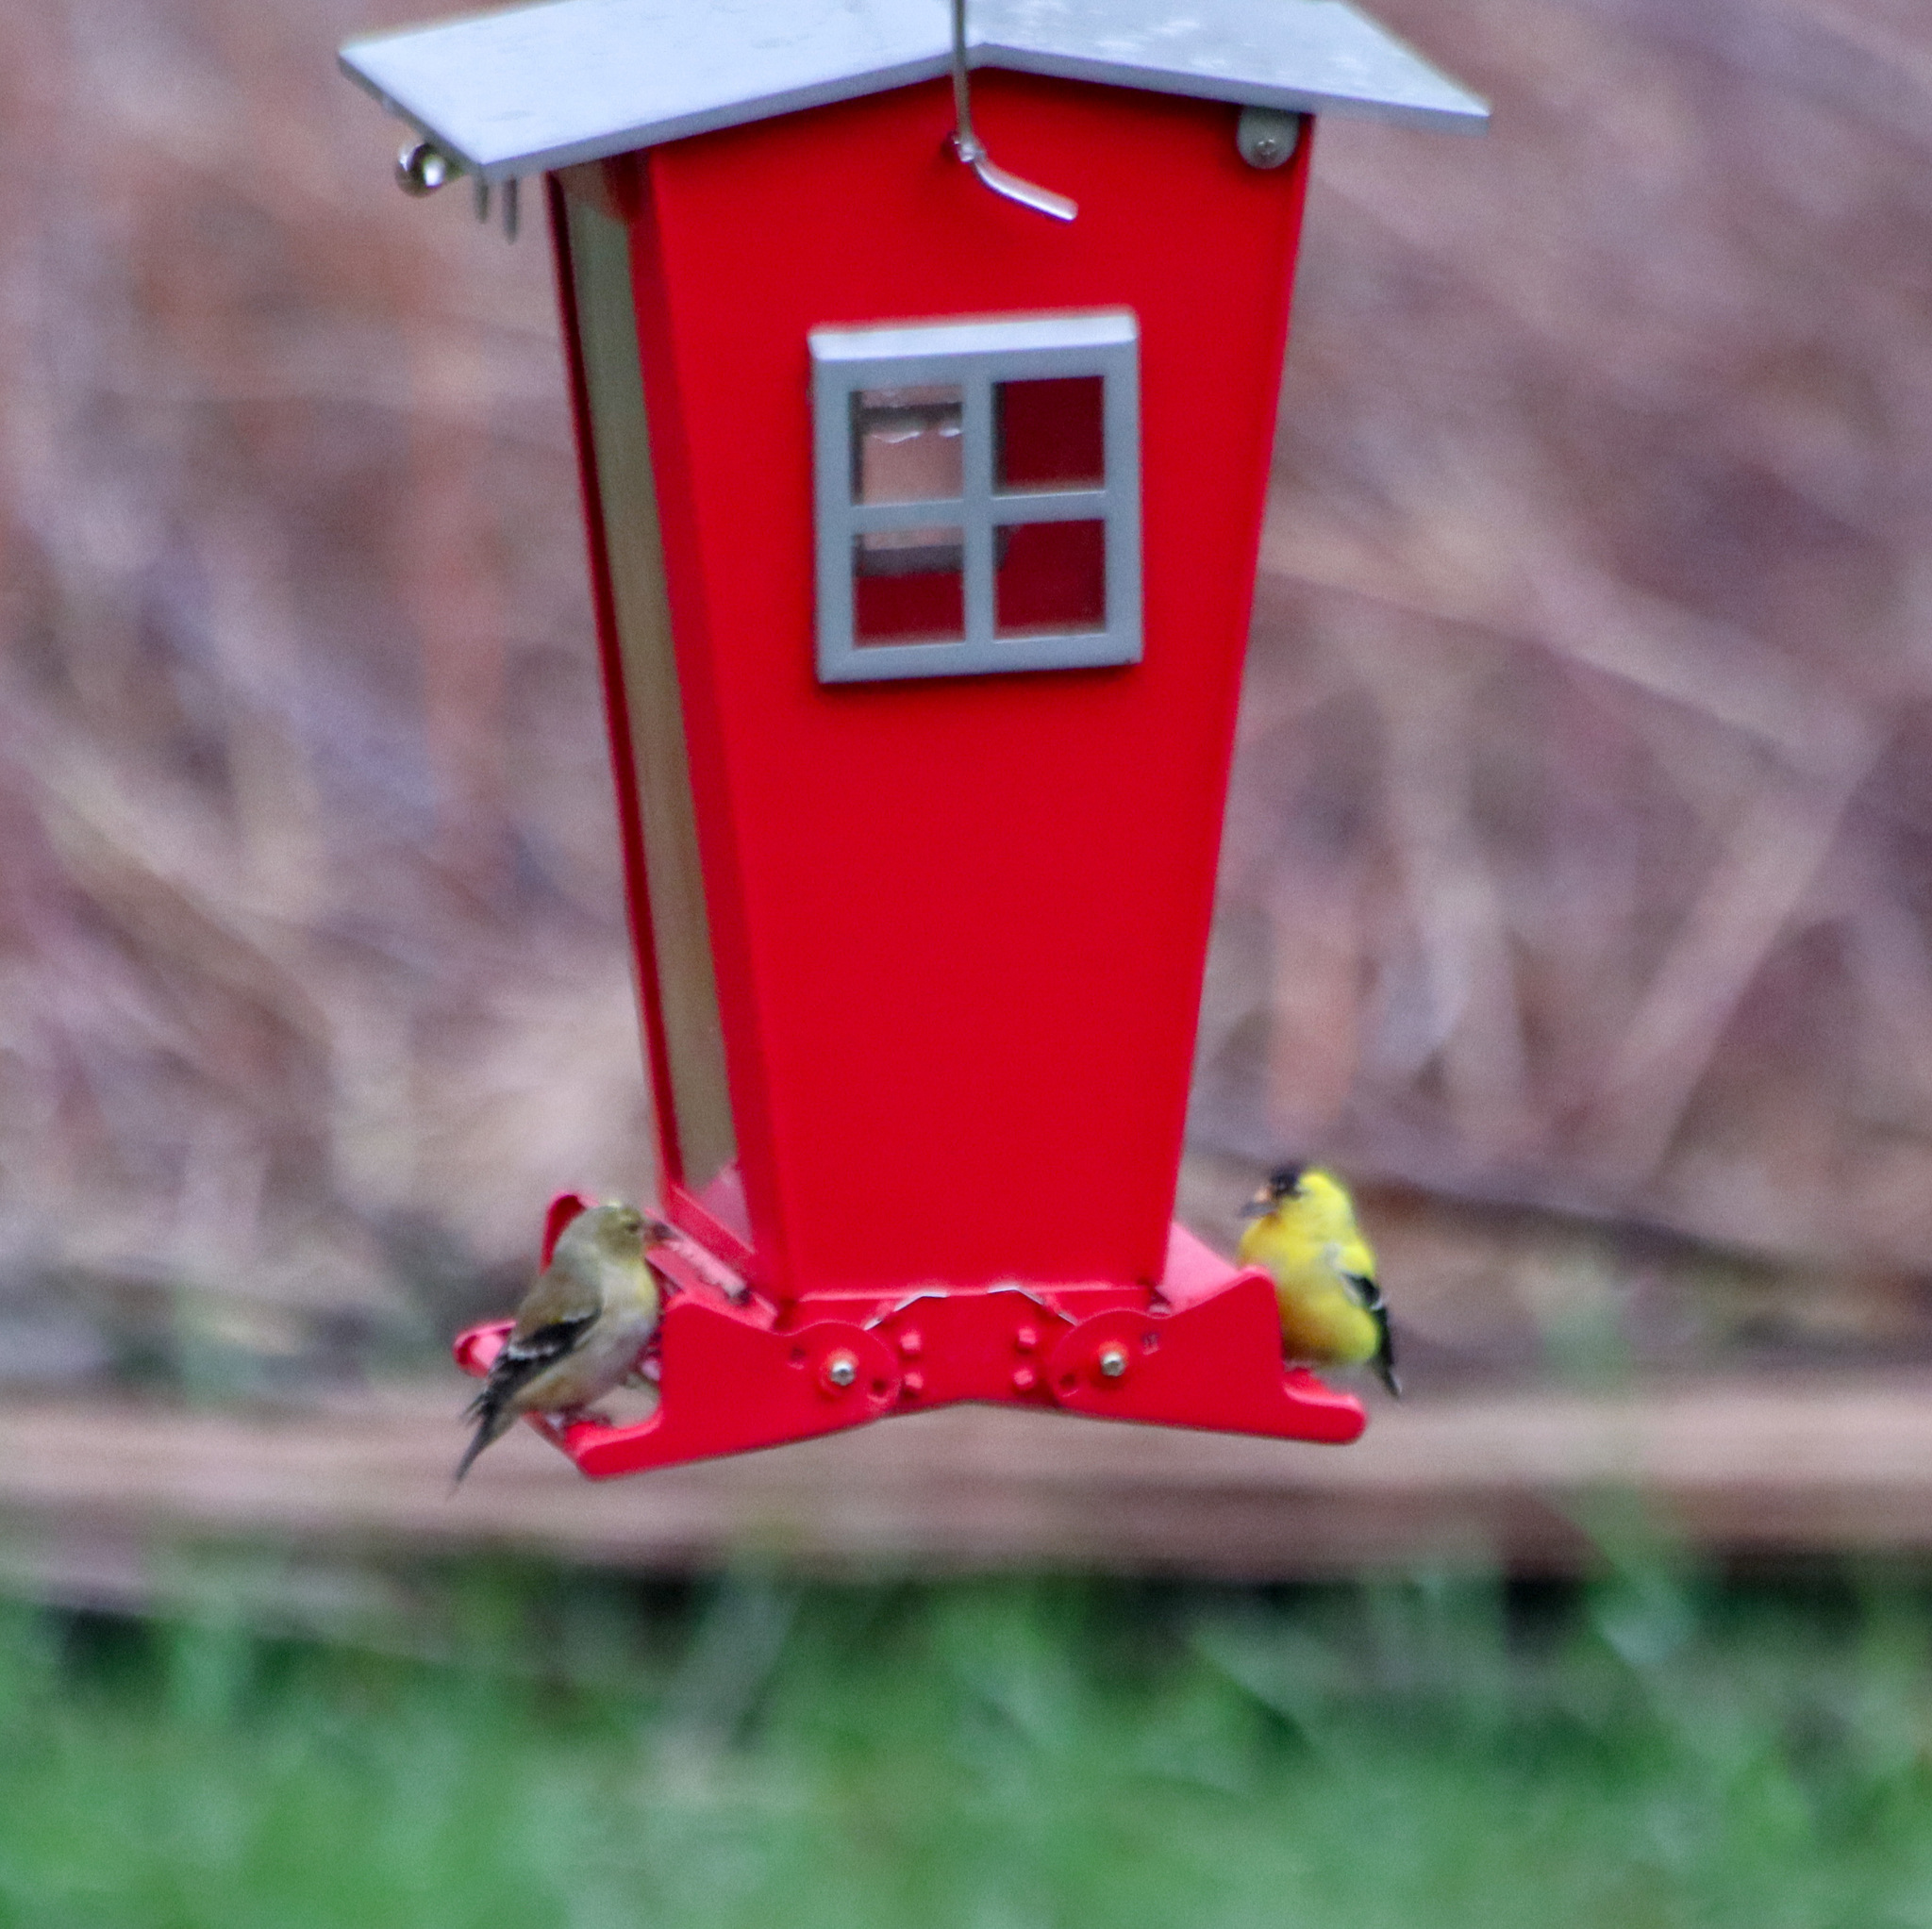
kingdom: Animalia
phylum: Chordata
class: Aves
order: Passeriformes
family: Fringillidae
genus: Spinus
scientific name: Spinus tristis
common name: American goldfinch
